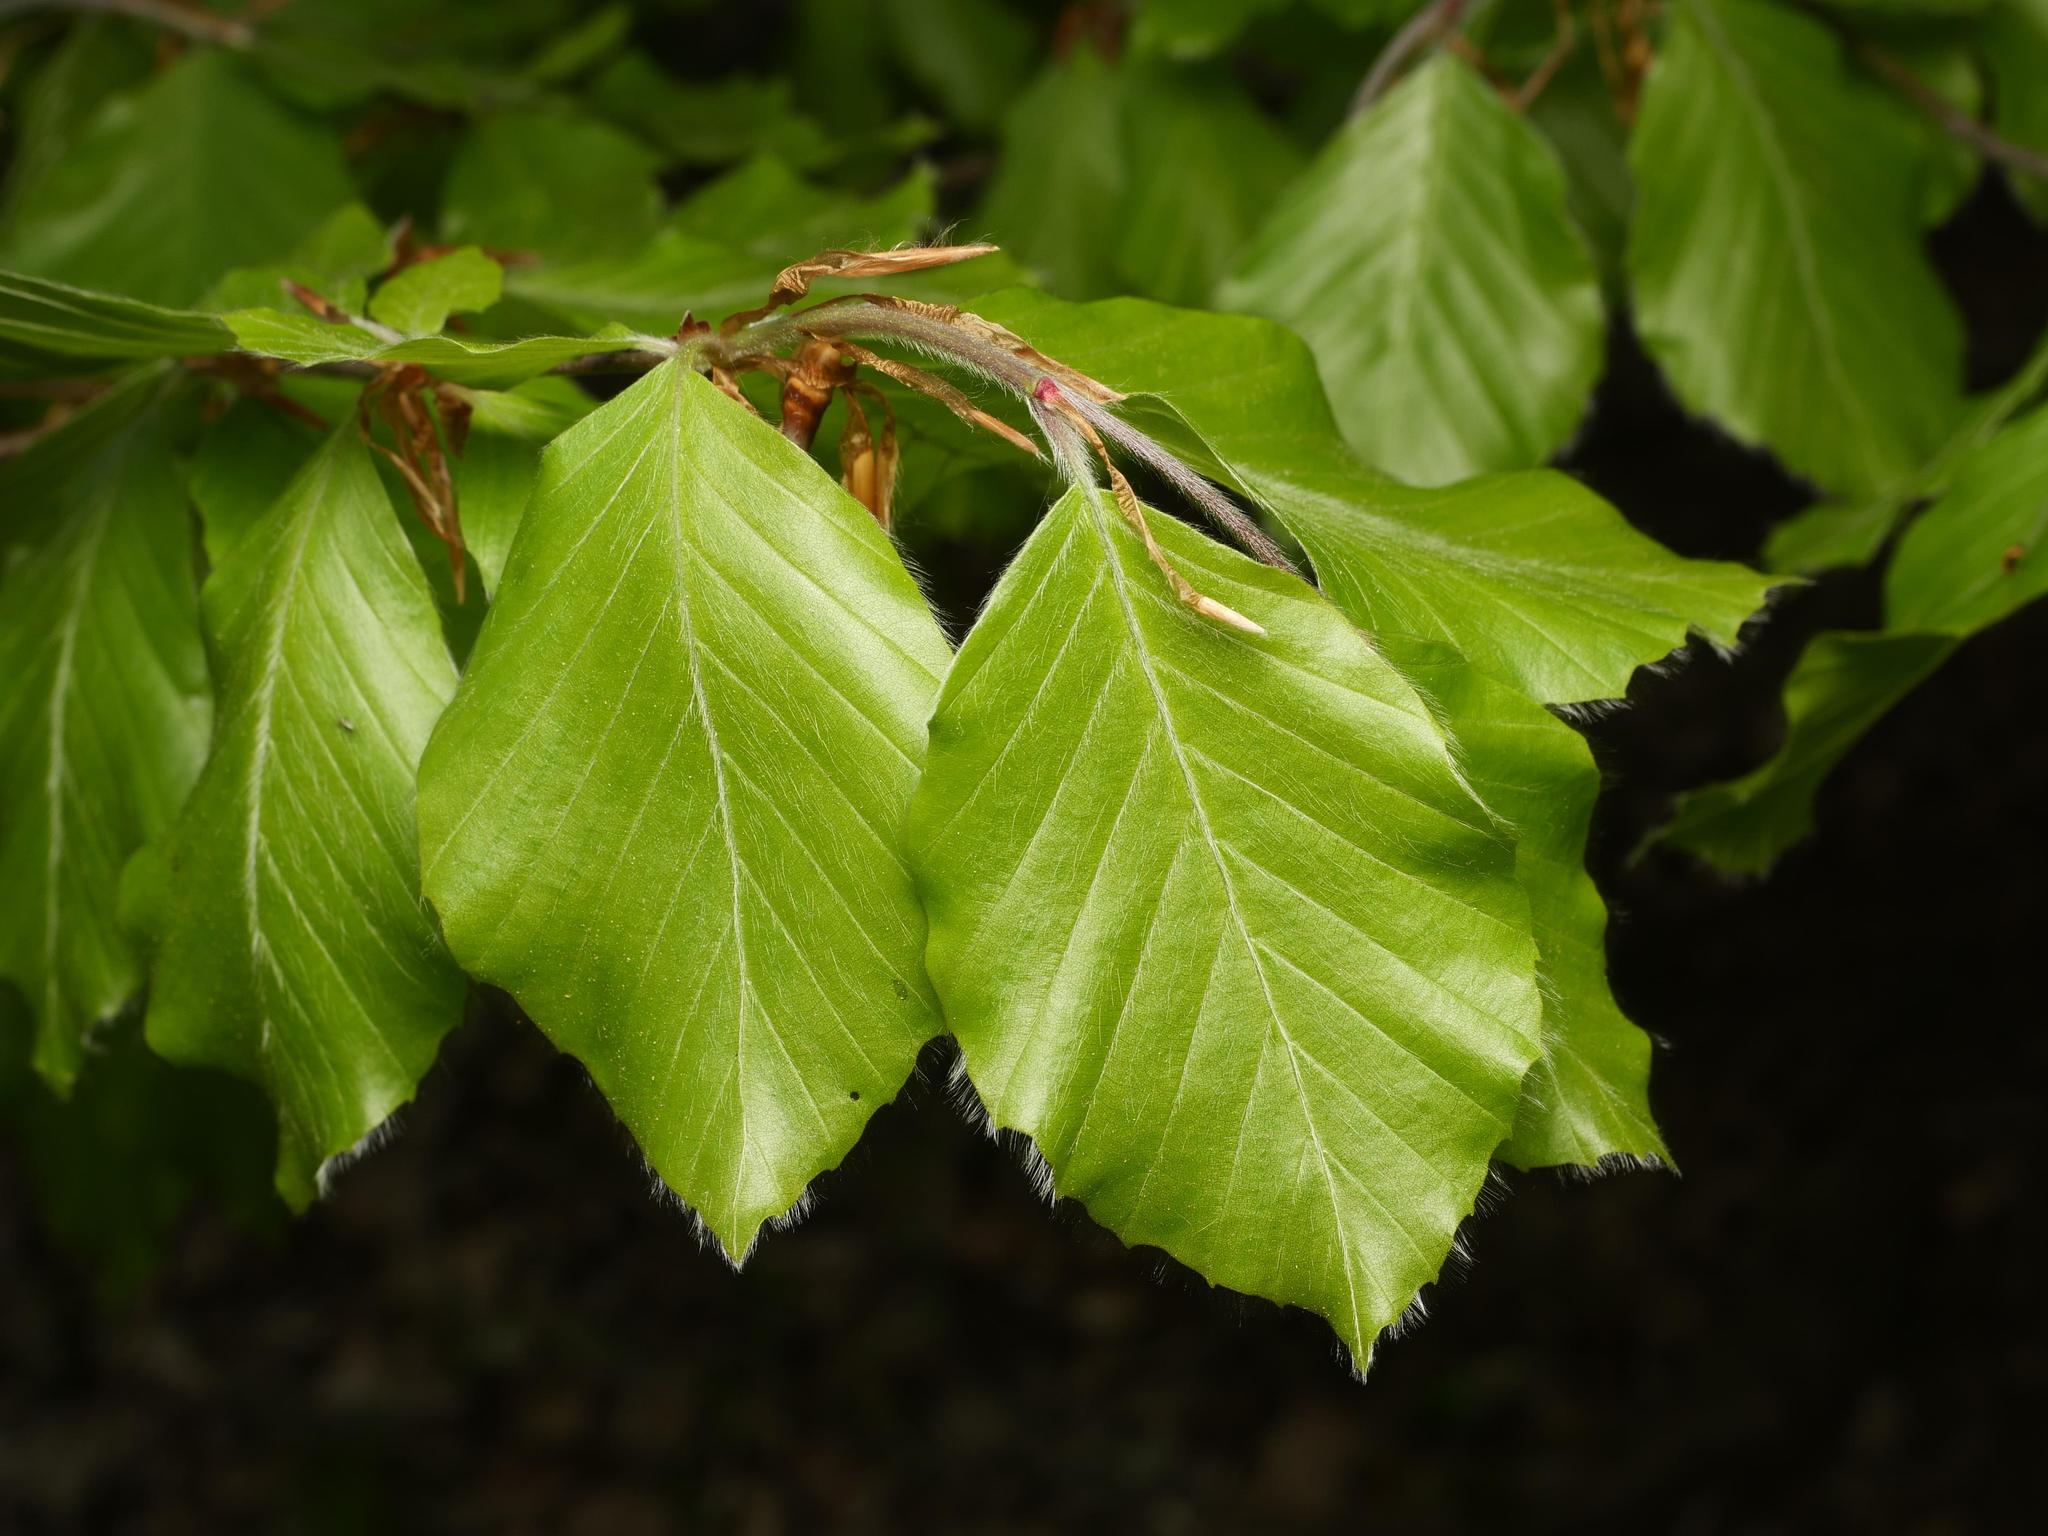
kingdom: Plantae
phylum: Tracheophyta
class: Magnoliopsida
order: Fagales
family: Fagaceae
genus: Fagus
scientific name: Fagus sylvatica
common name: Beech
